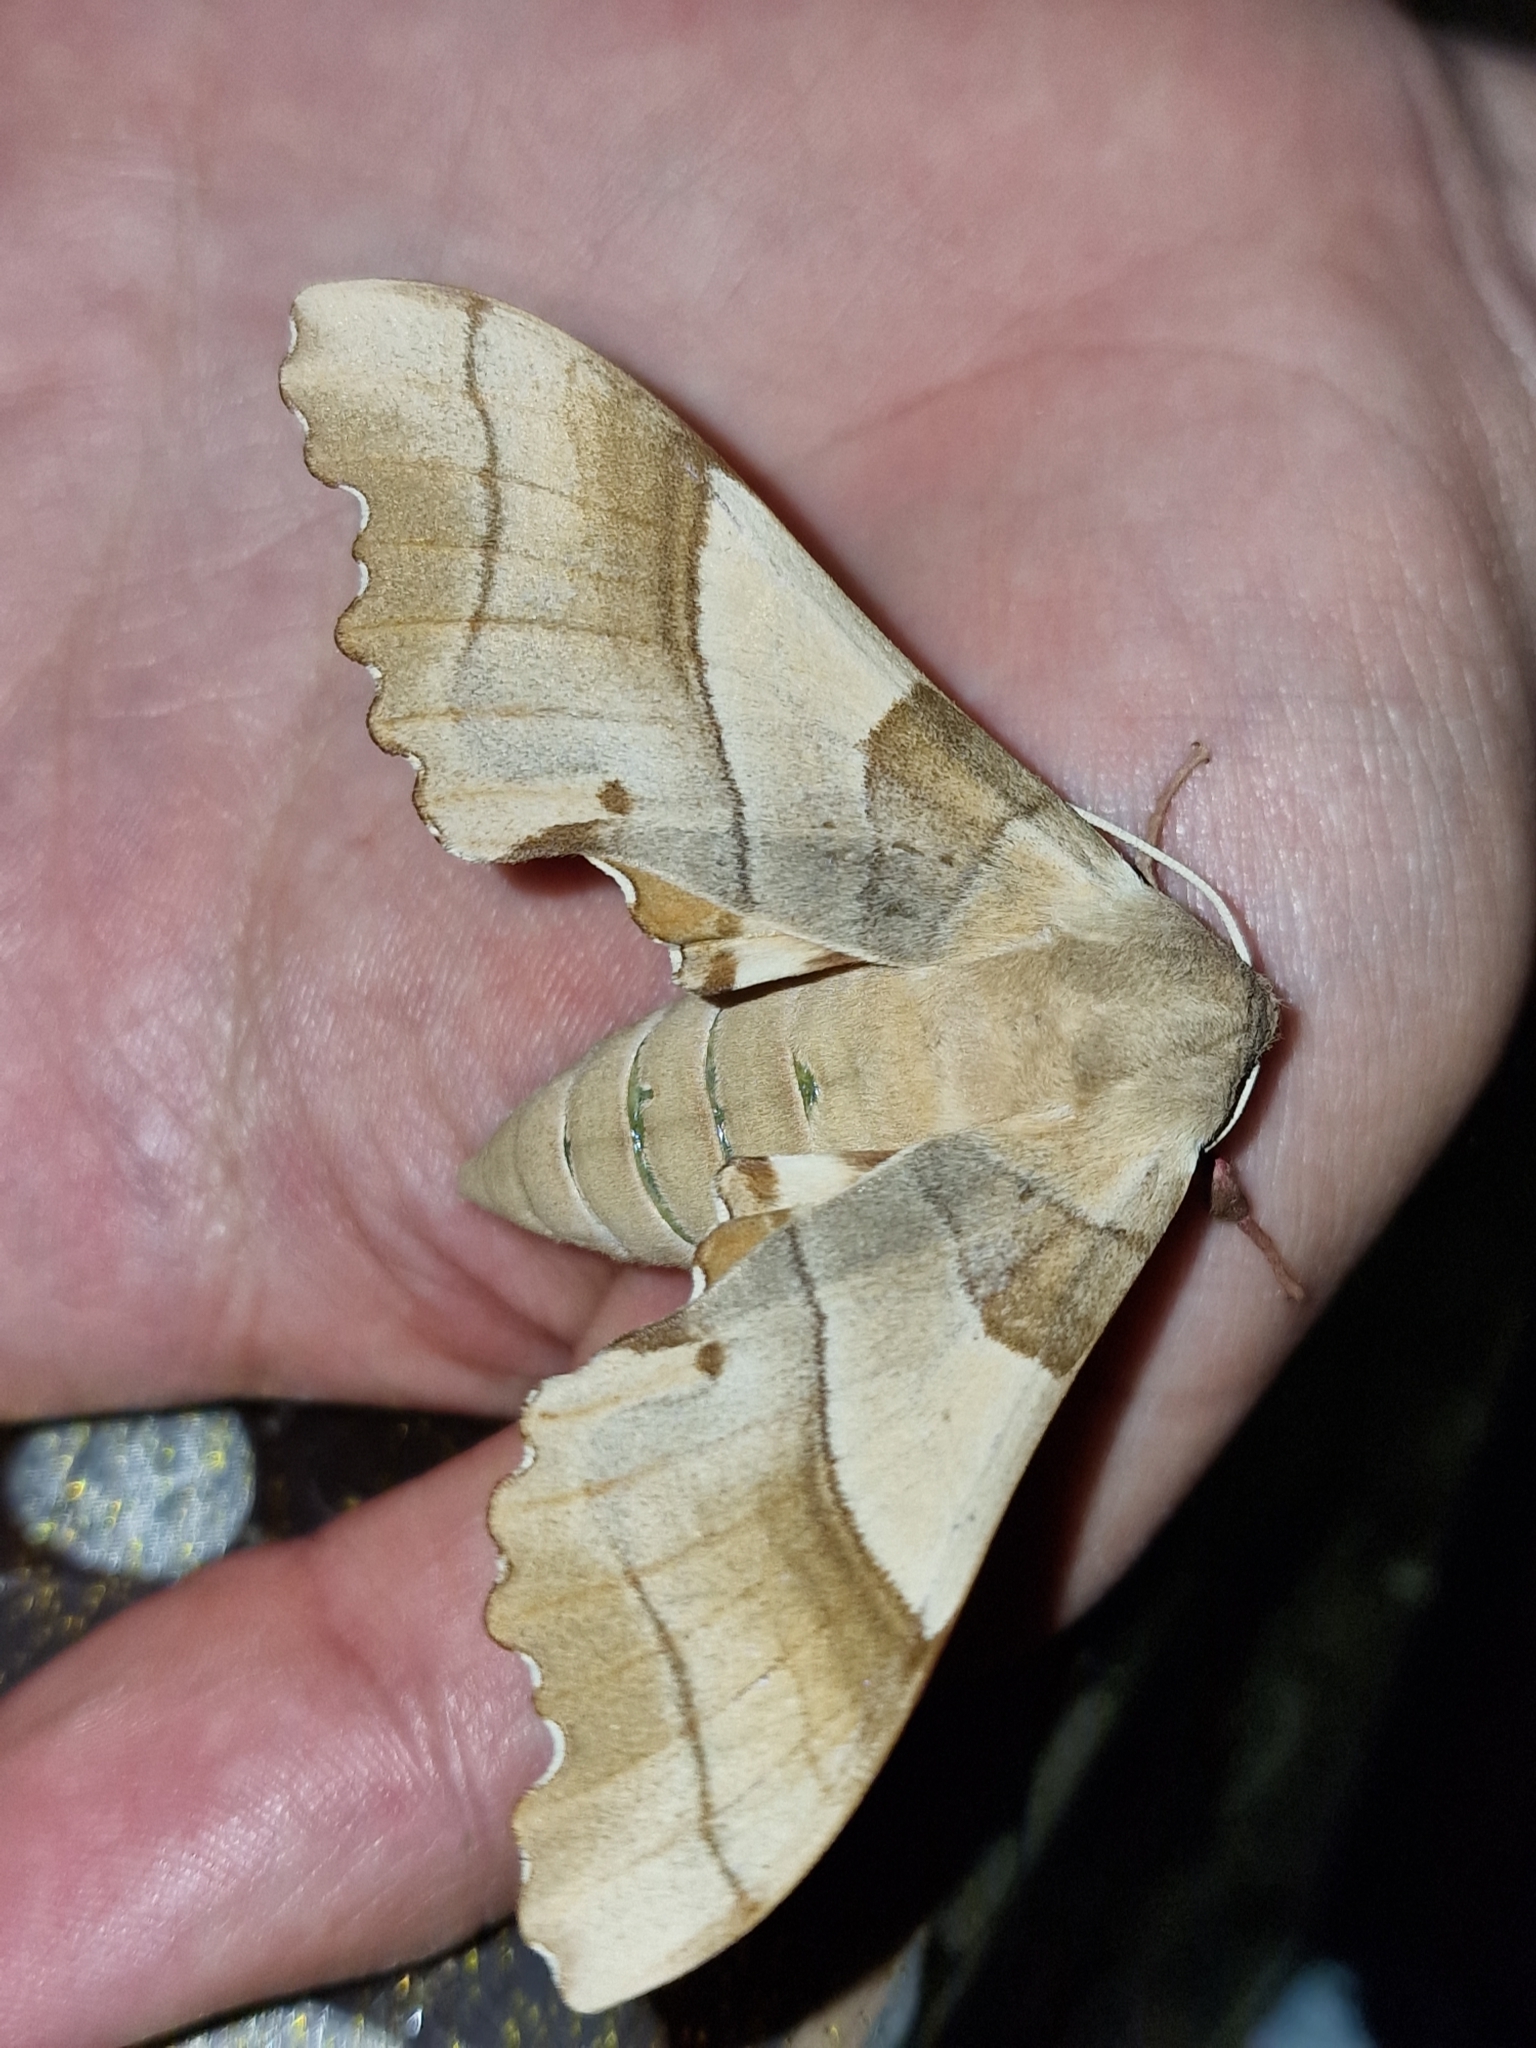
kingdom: Animalia
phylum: Arthropoda
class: Insecta
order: Lepidoptera
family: Sphingidae
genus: Marumba
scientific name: Marumba quercus
